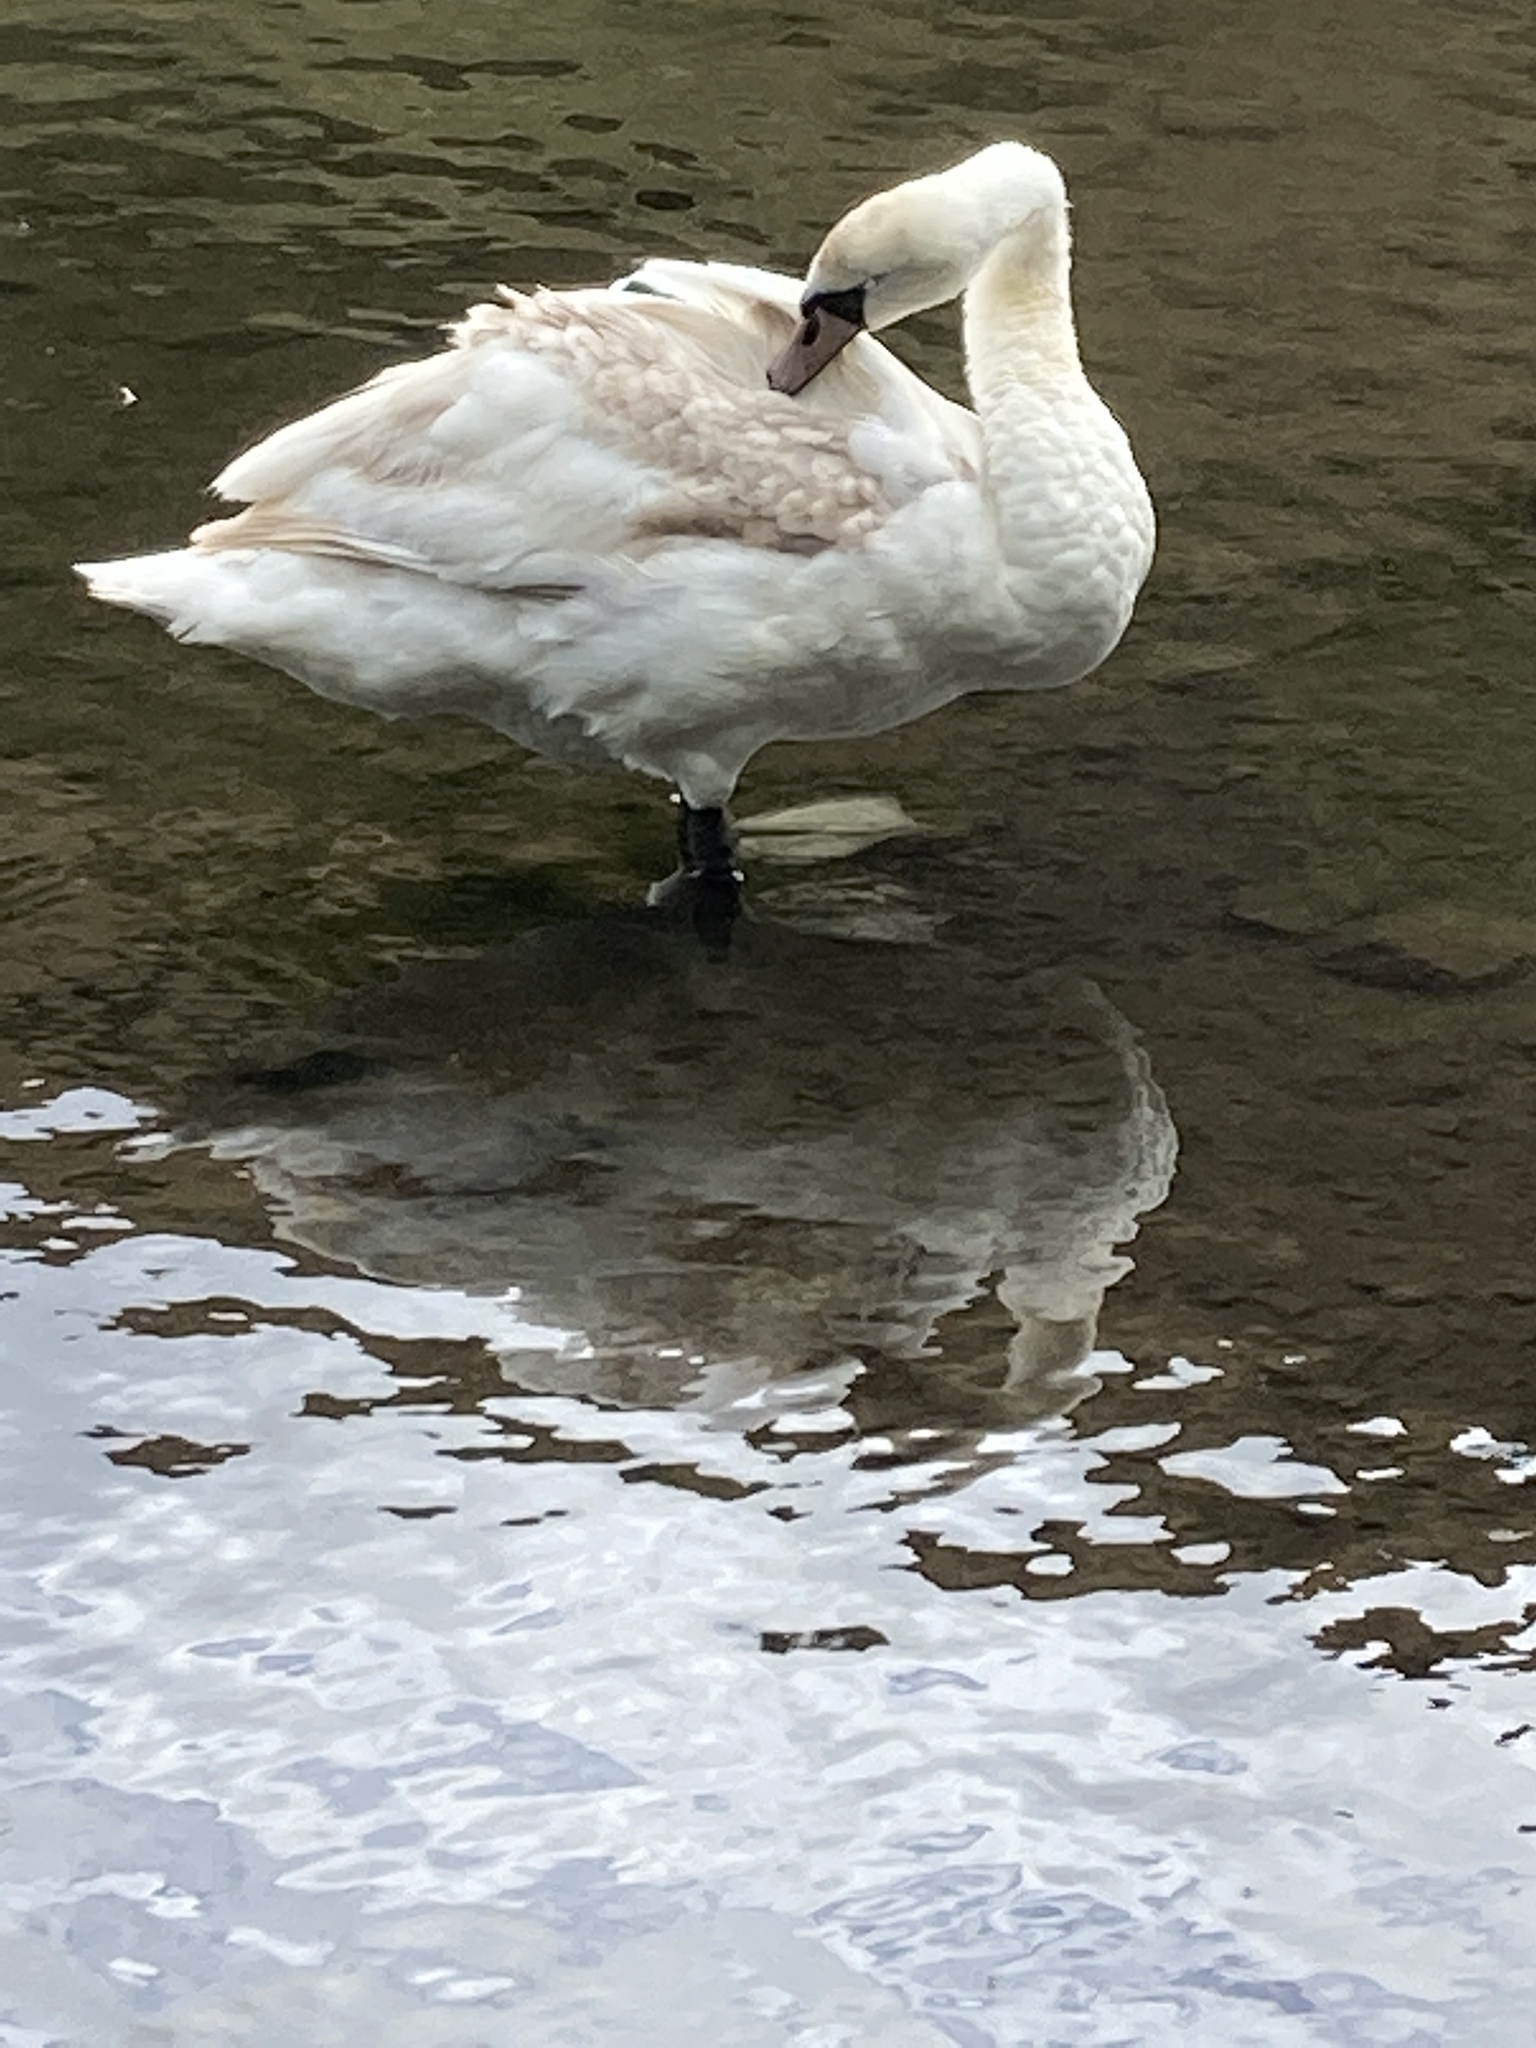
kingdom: Animalia
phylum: Chordata
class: Aves
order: Anseriformes
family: Anatidae
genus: Cygnus
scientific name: Cygnus olor
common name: Mute swan
